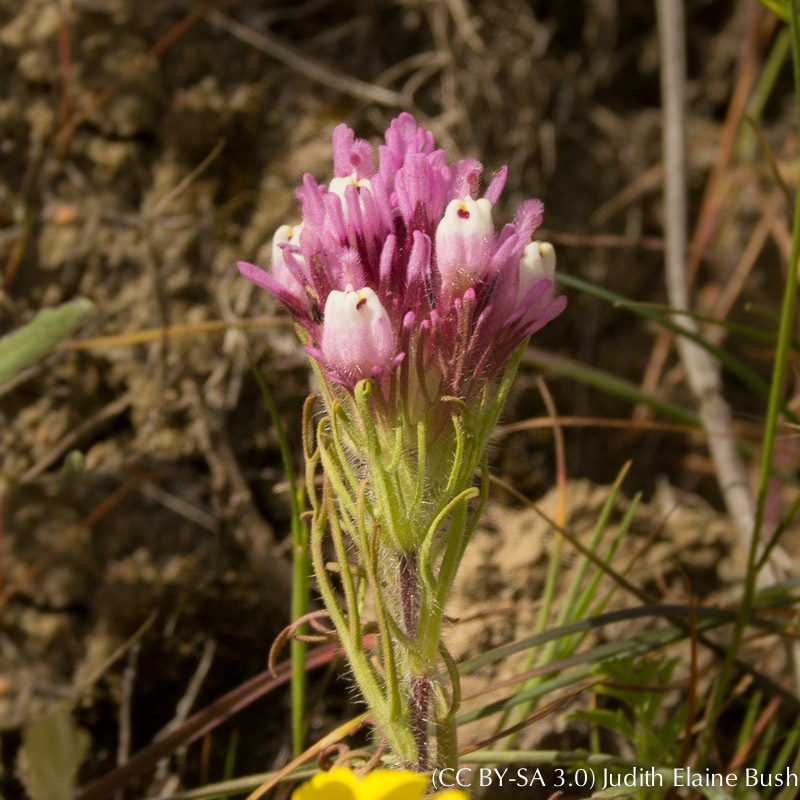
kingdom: Plantae
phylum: Tracheophyta
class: Magnoliopsida
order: Lamiales
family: Orobanchaceae
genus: Castilleja
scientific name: Castilleja exserta
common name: Purple owl-clover
